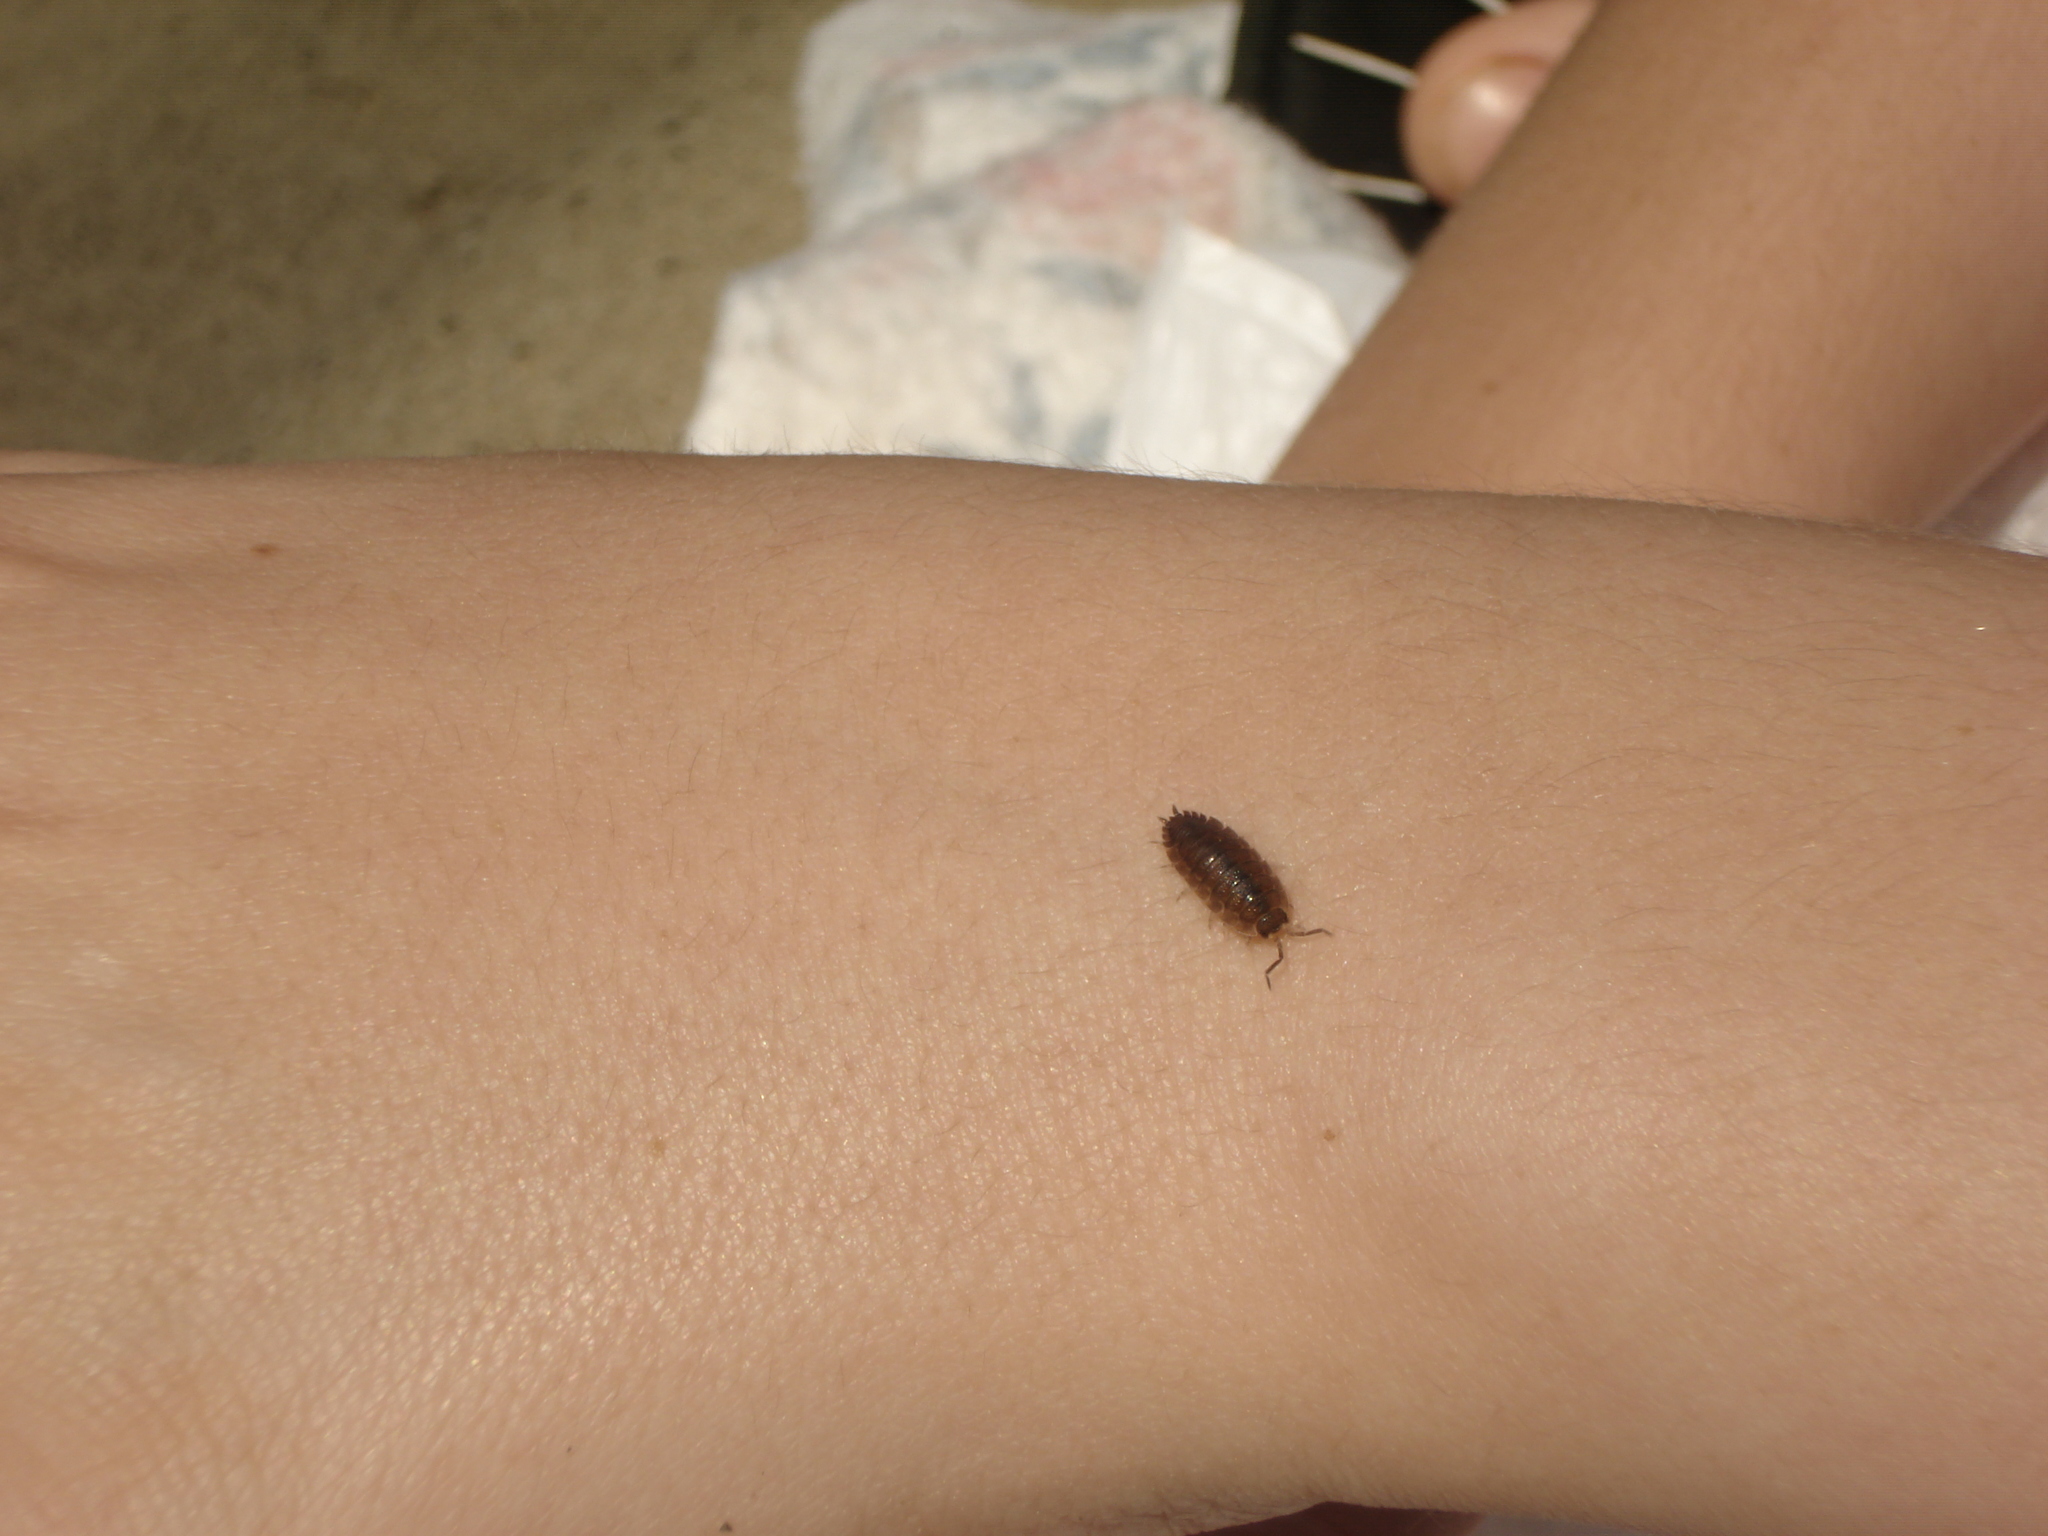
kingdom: Animalia
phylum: Arthropoda
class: Malacostraca
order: Isopoda
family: Porcellionidae
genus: Porcellio
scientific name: Porcellio scaber
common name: Common rough woodlouse
